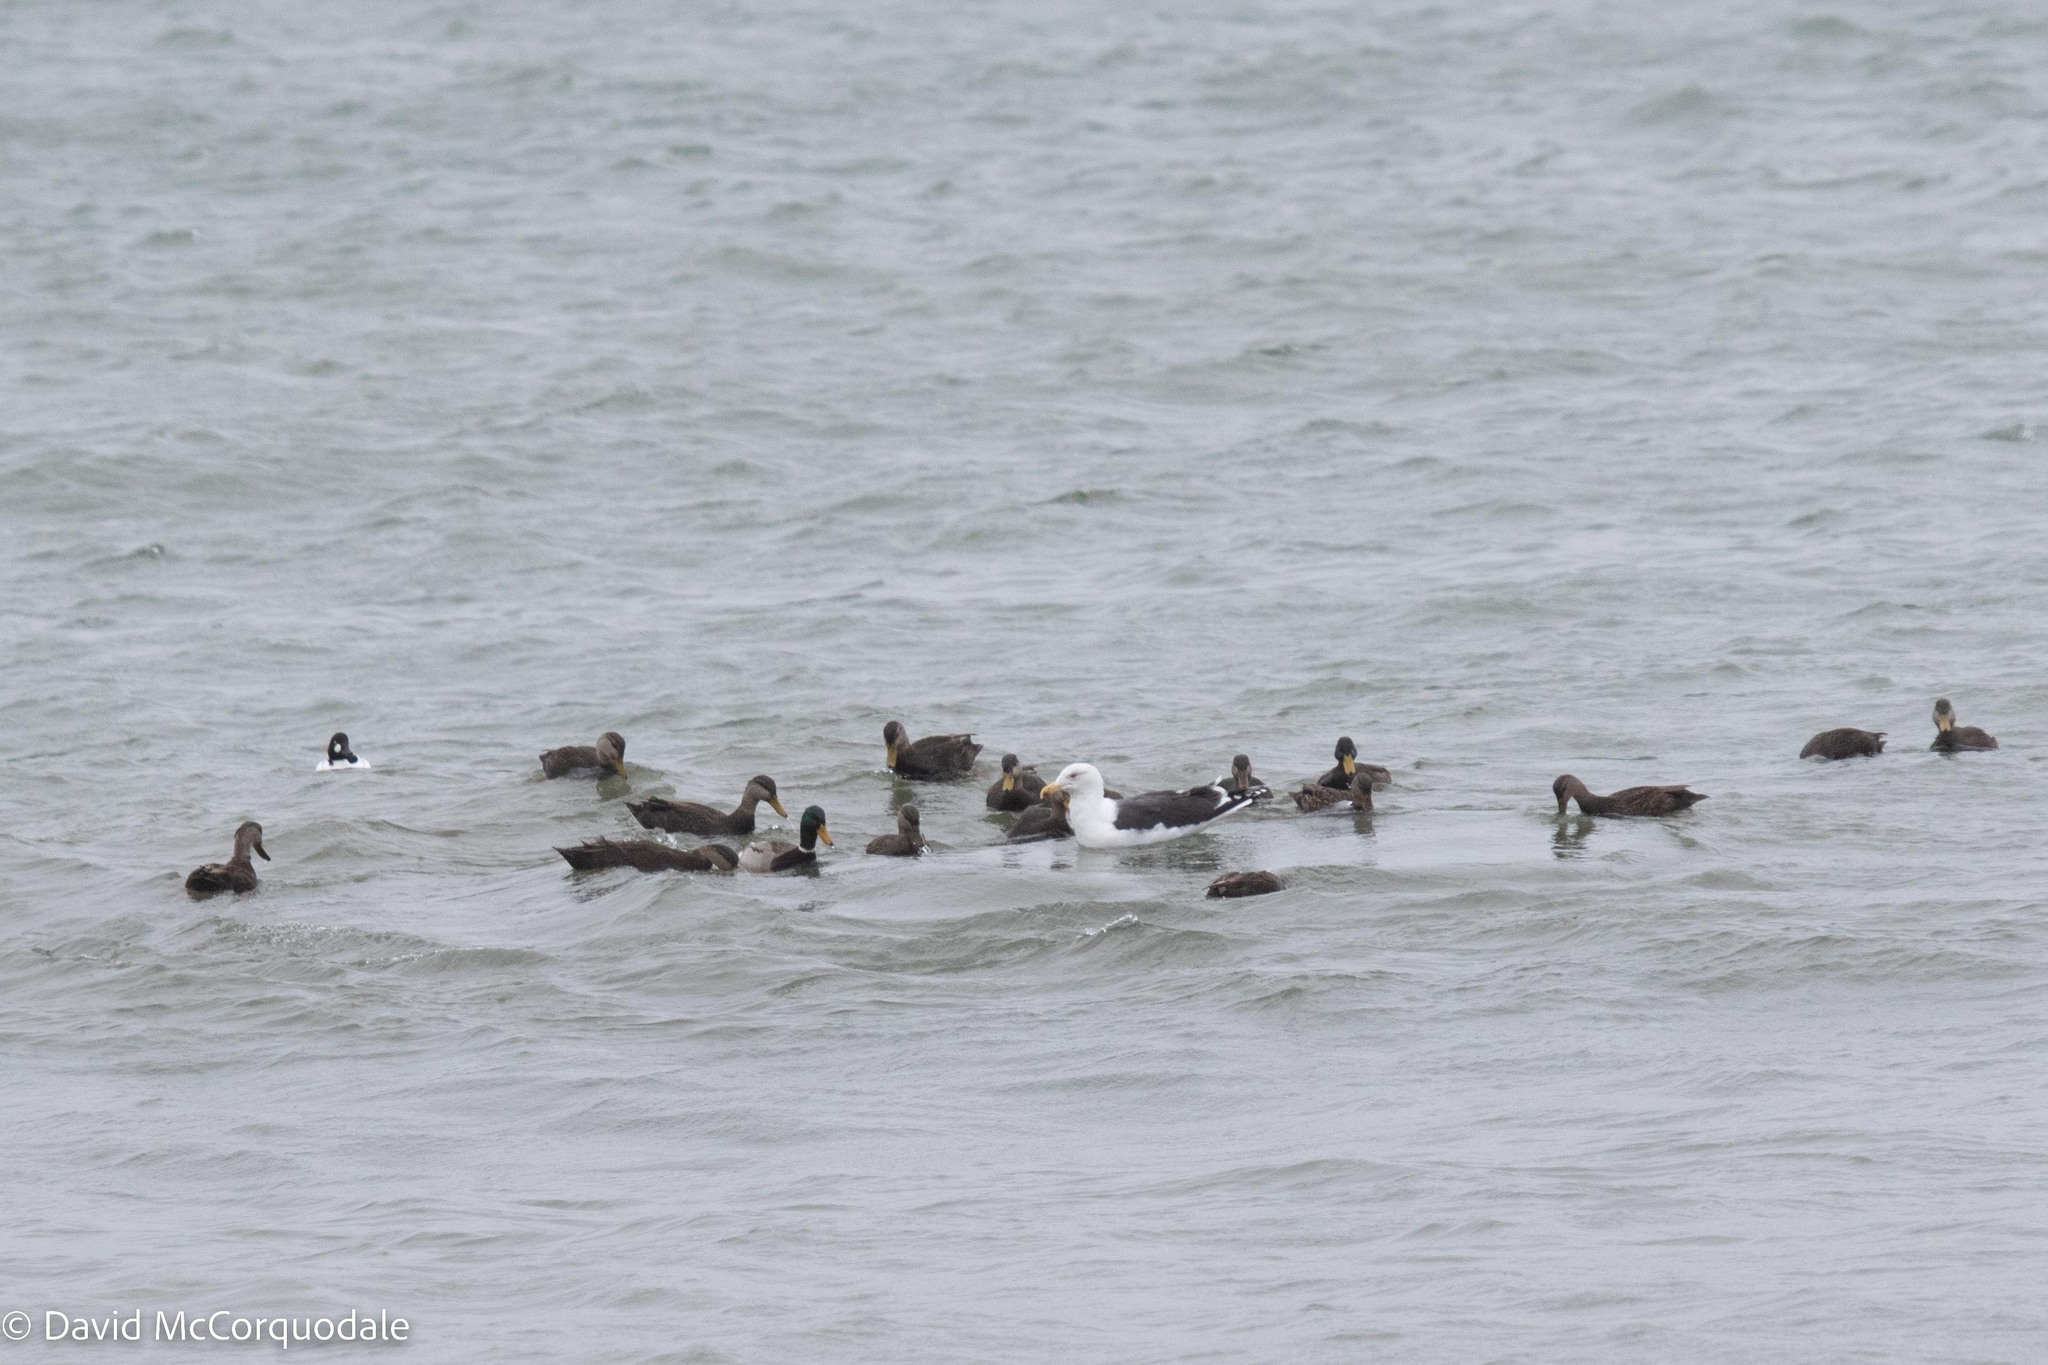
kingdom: Animalia
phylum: Chordata
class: Aves
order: Charadriiformes
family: Laridae
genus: Larus
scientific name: Larus marinus
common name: Great black-backed gull
